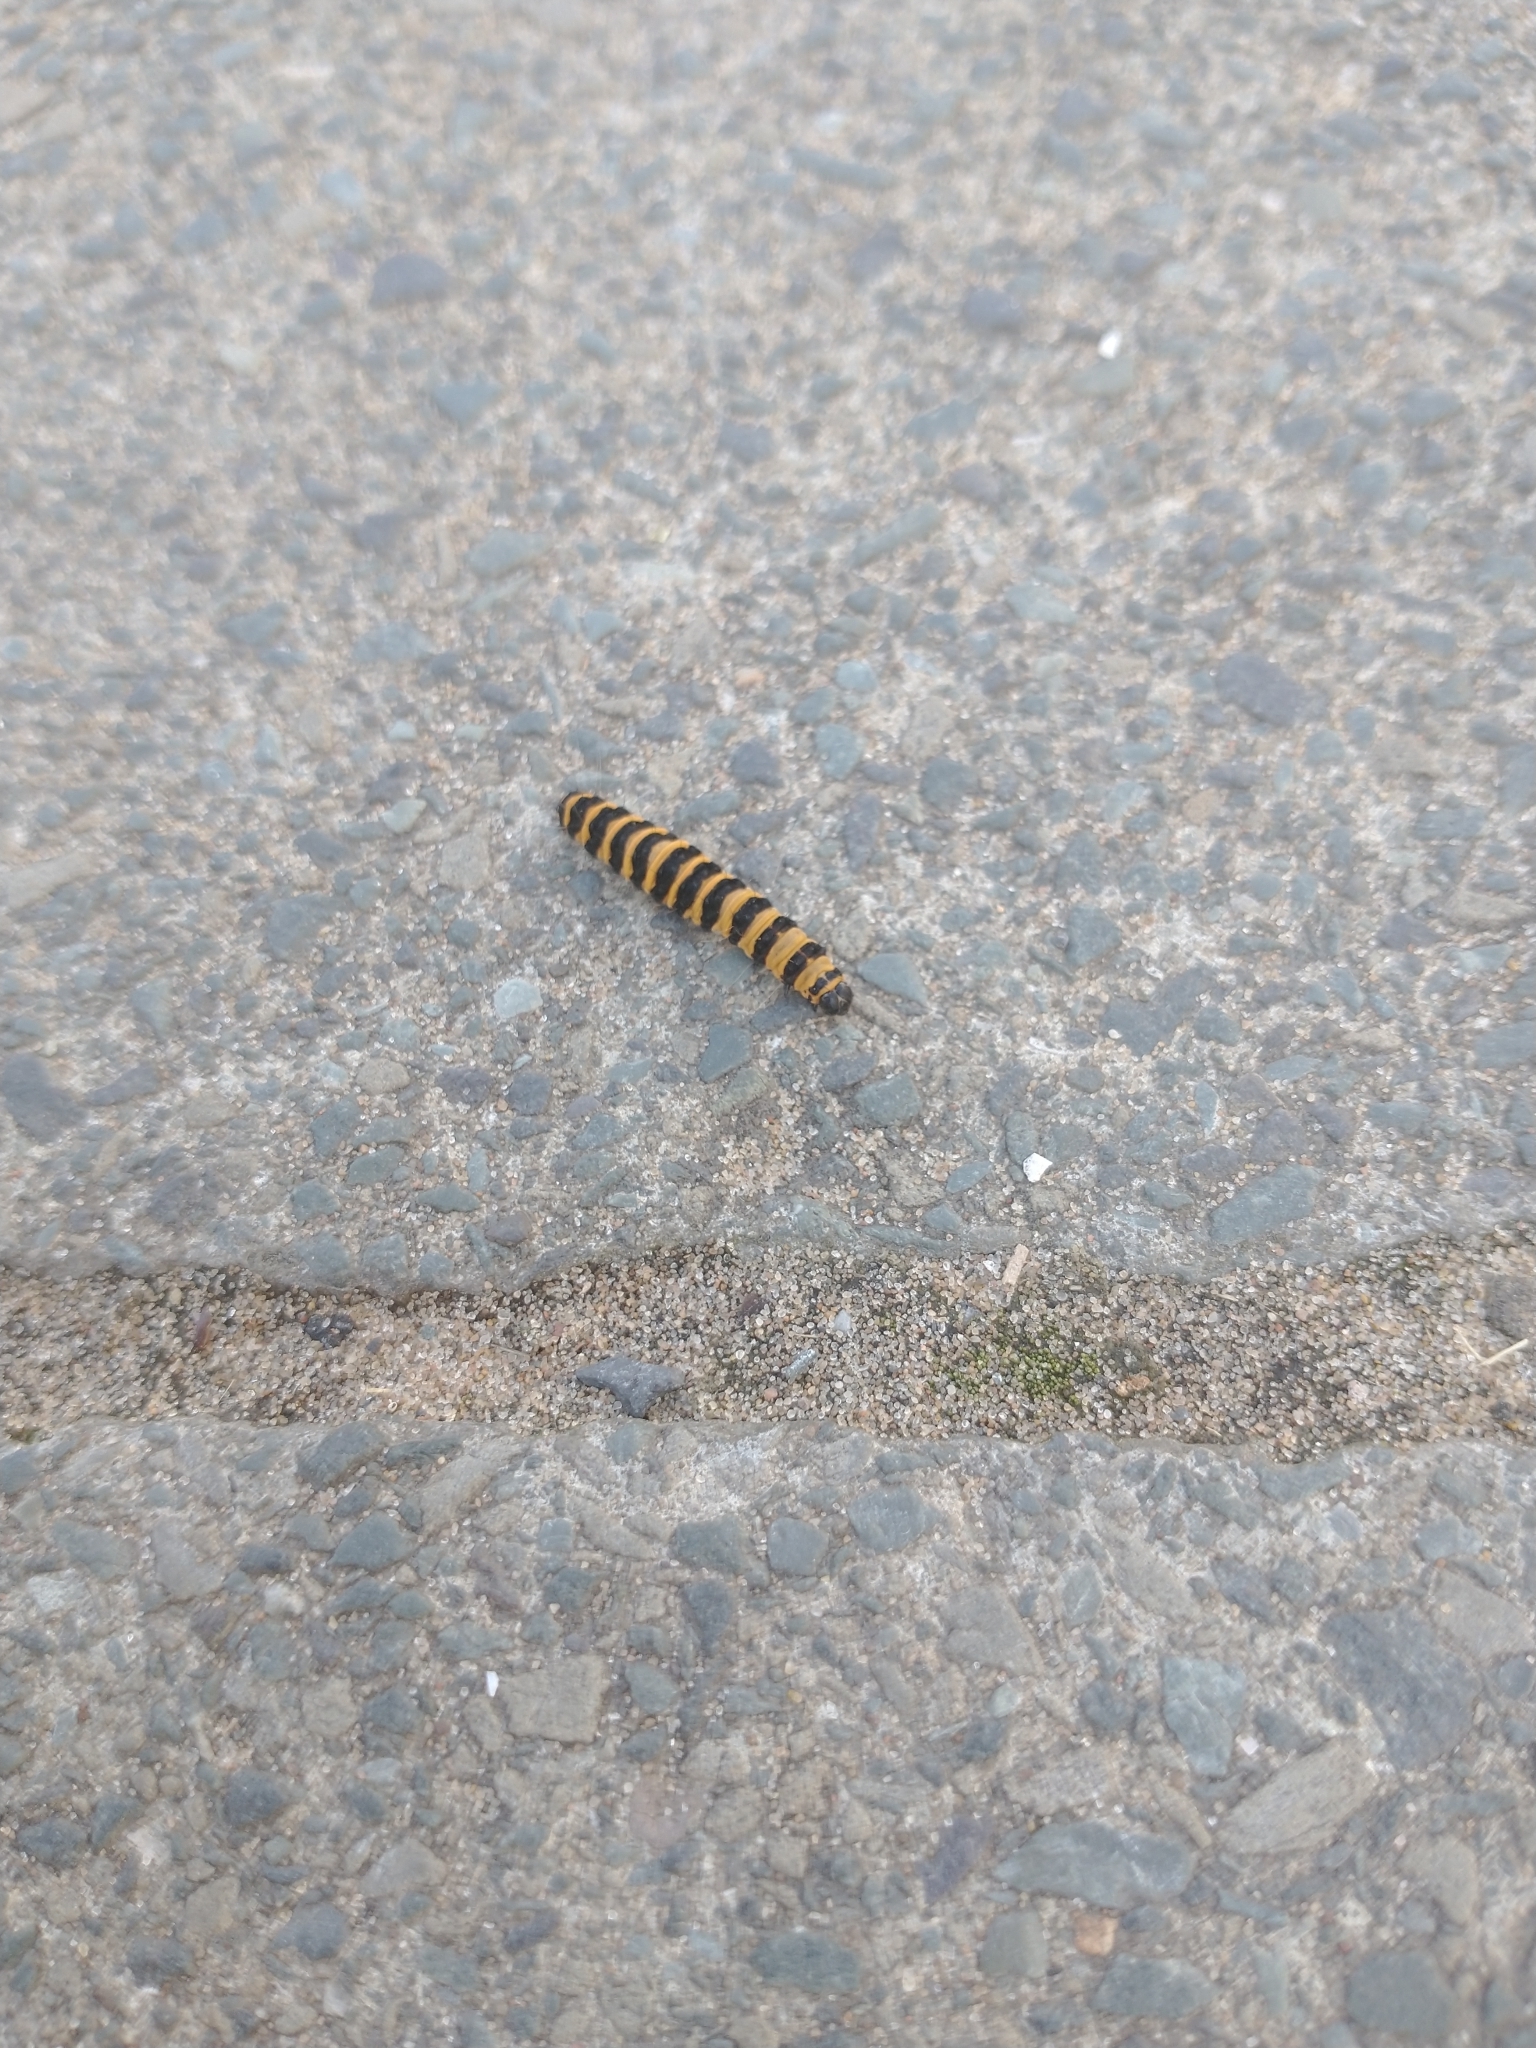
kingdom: Animalia
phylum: Arthropoda
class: Insecta
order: Lepidoptera
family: Erebidae
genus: Tyria
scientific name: Tyria jacobaeae
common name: Cinnabar
